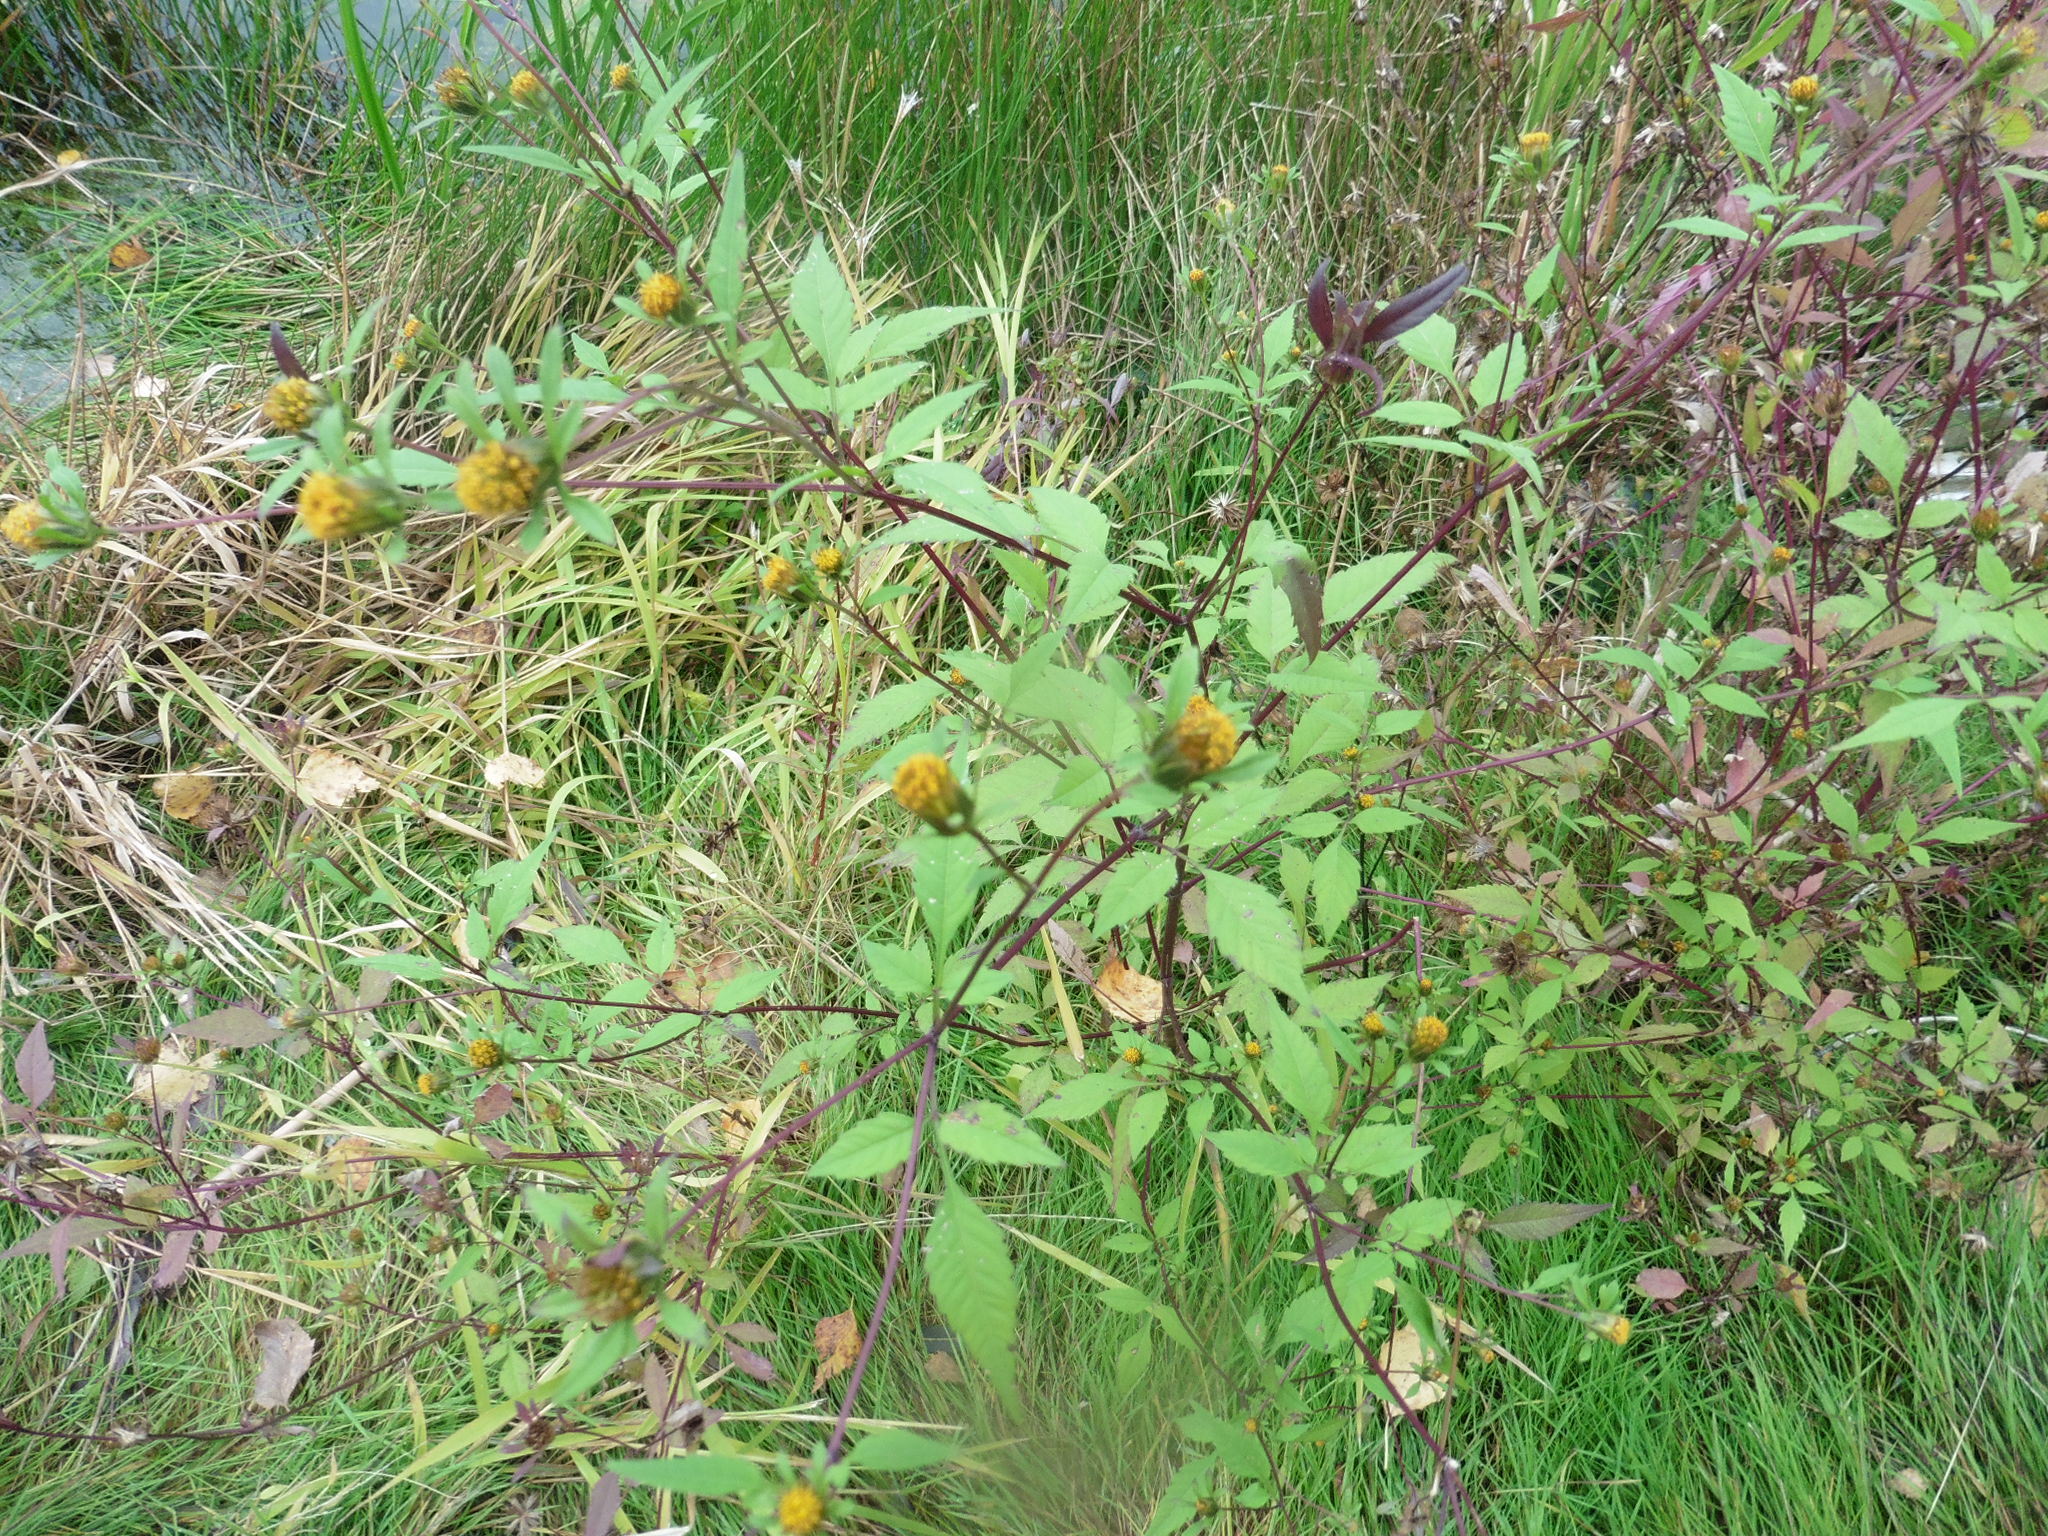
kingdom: Plantae
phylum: Tracheophyta
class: Magnoliopsida
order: Asterales
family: Asteraceae
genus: Bidens
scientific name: Bidens frondosa
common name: Beggarticks
